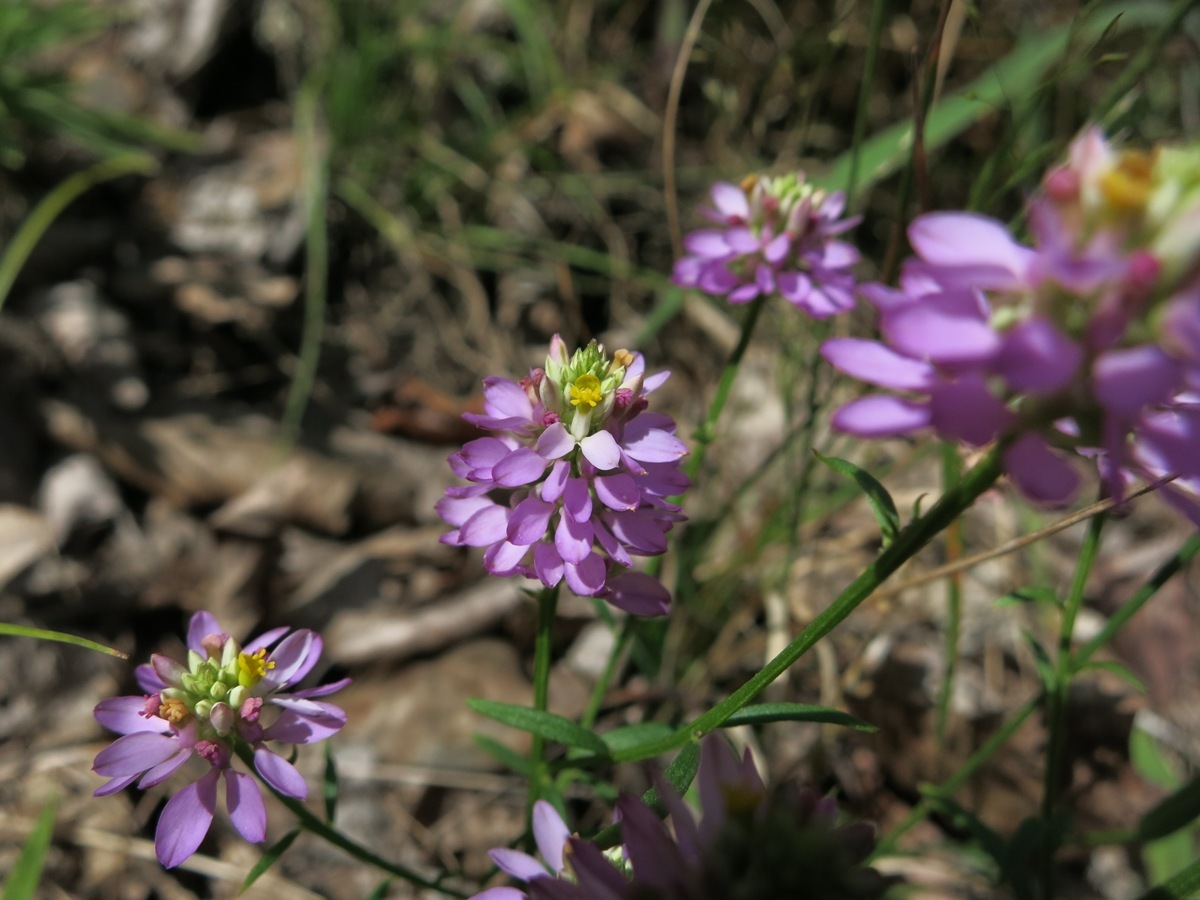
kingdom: Plantae
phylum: Tracheophyta
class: Magnoliopsida
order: Fabales
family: Polygalaceae
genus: Polygala
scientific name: Polygala curtissii
